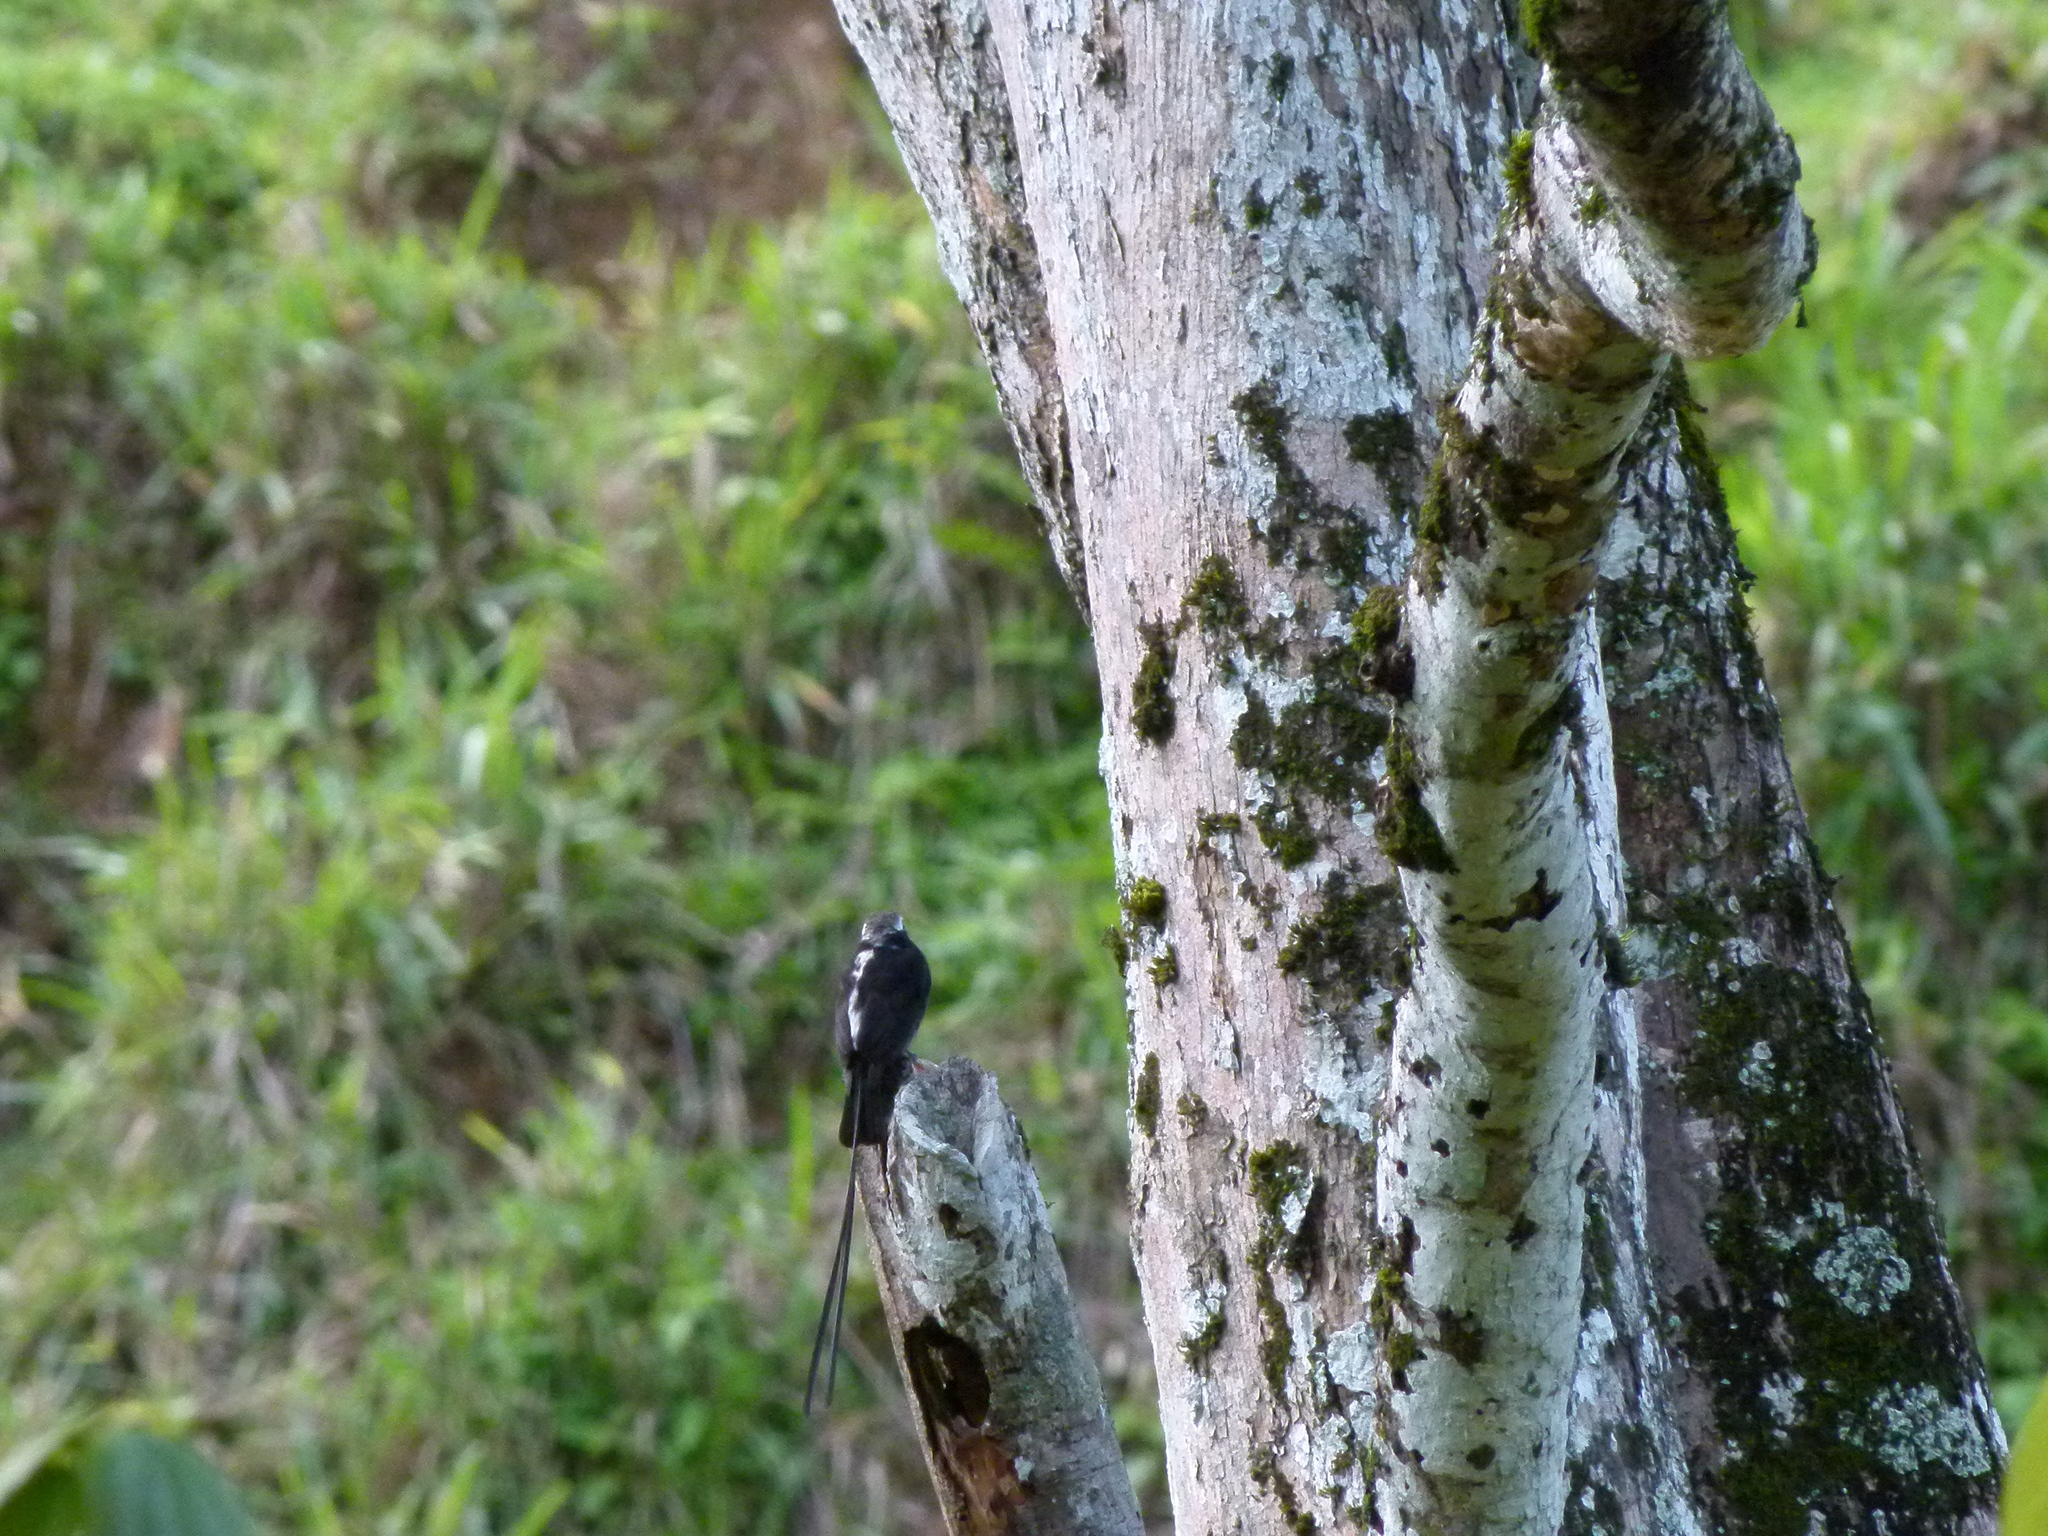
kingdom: Animalia
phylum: Chordata
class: Aves
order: Passeriformes
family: Tyrannidae
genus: Colonia
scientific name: Colonia colonus
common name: Long-tailed tyrant
